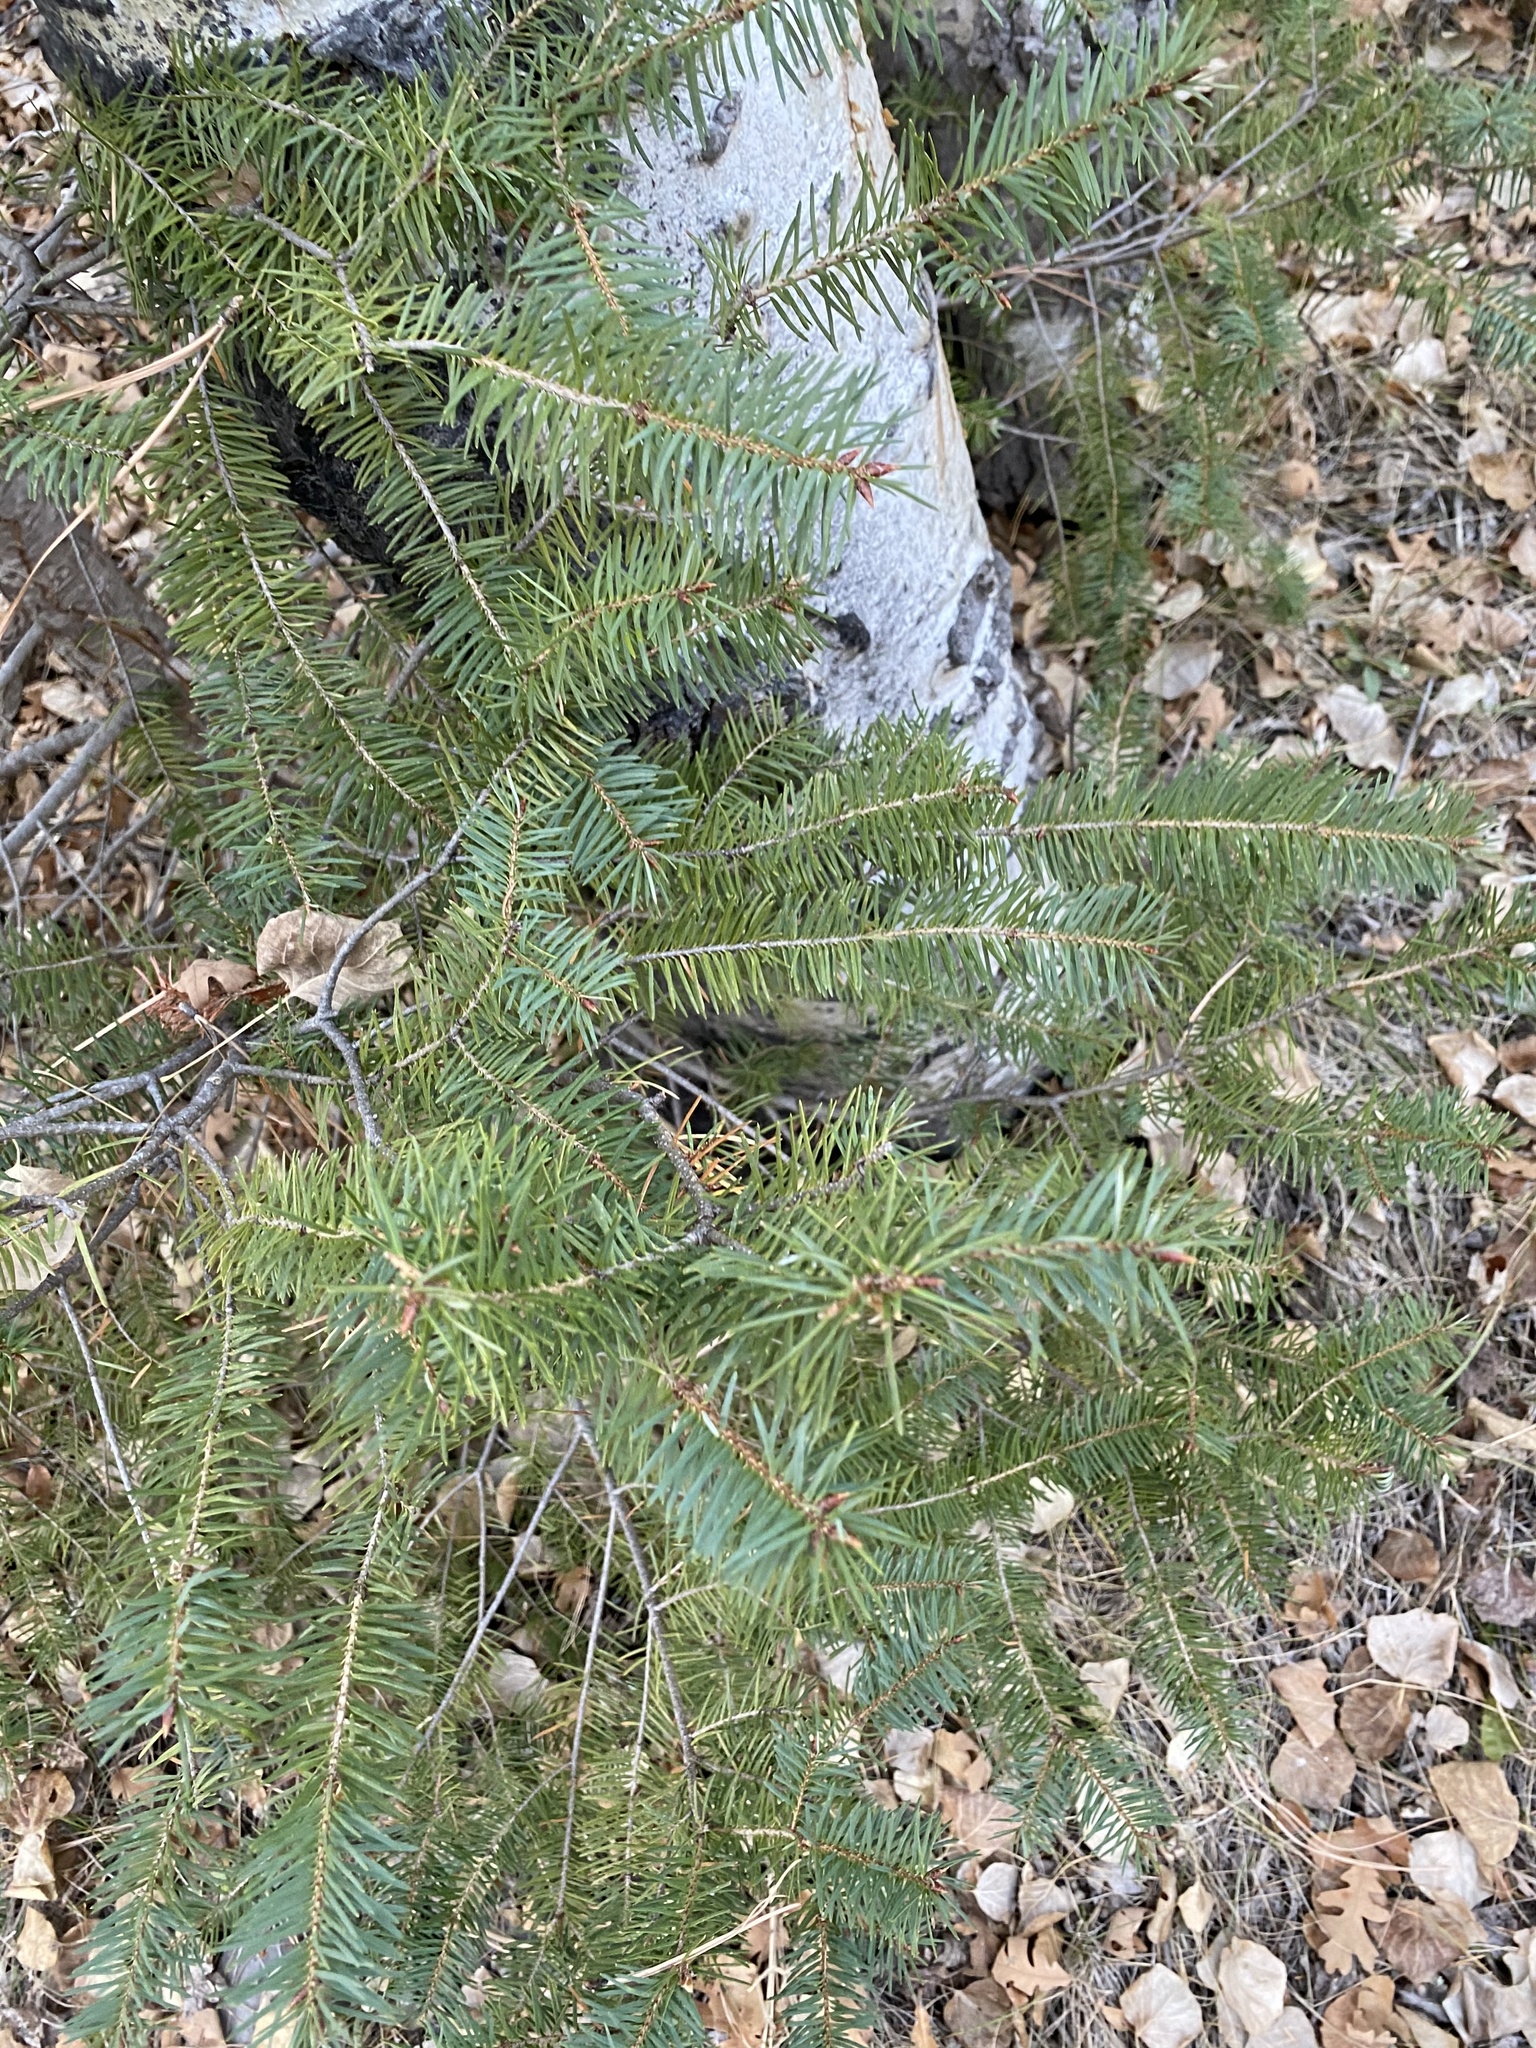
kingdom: Plantae
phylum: Tracheophyta
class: Pinopsida
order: Pinales
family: Pinaceae
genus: Pseudotsuga
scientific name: Pseudotsuga menziesii
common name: Douglas fir
